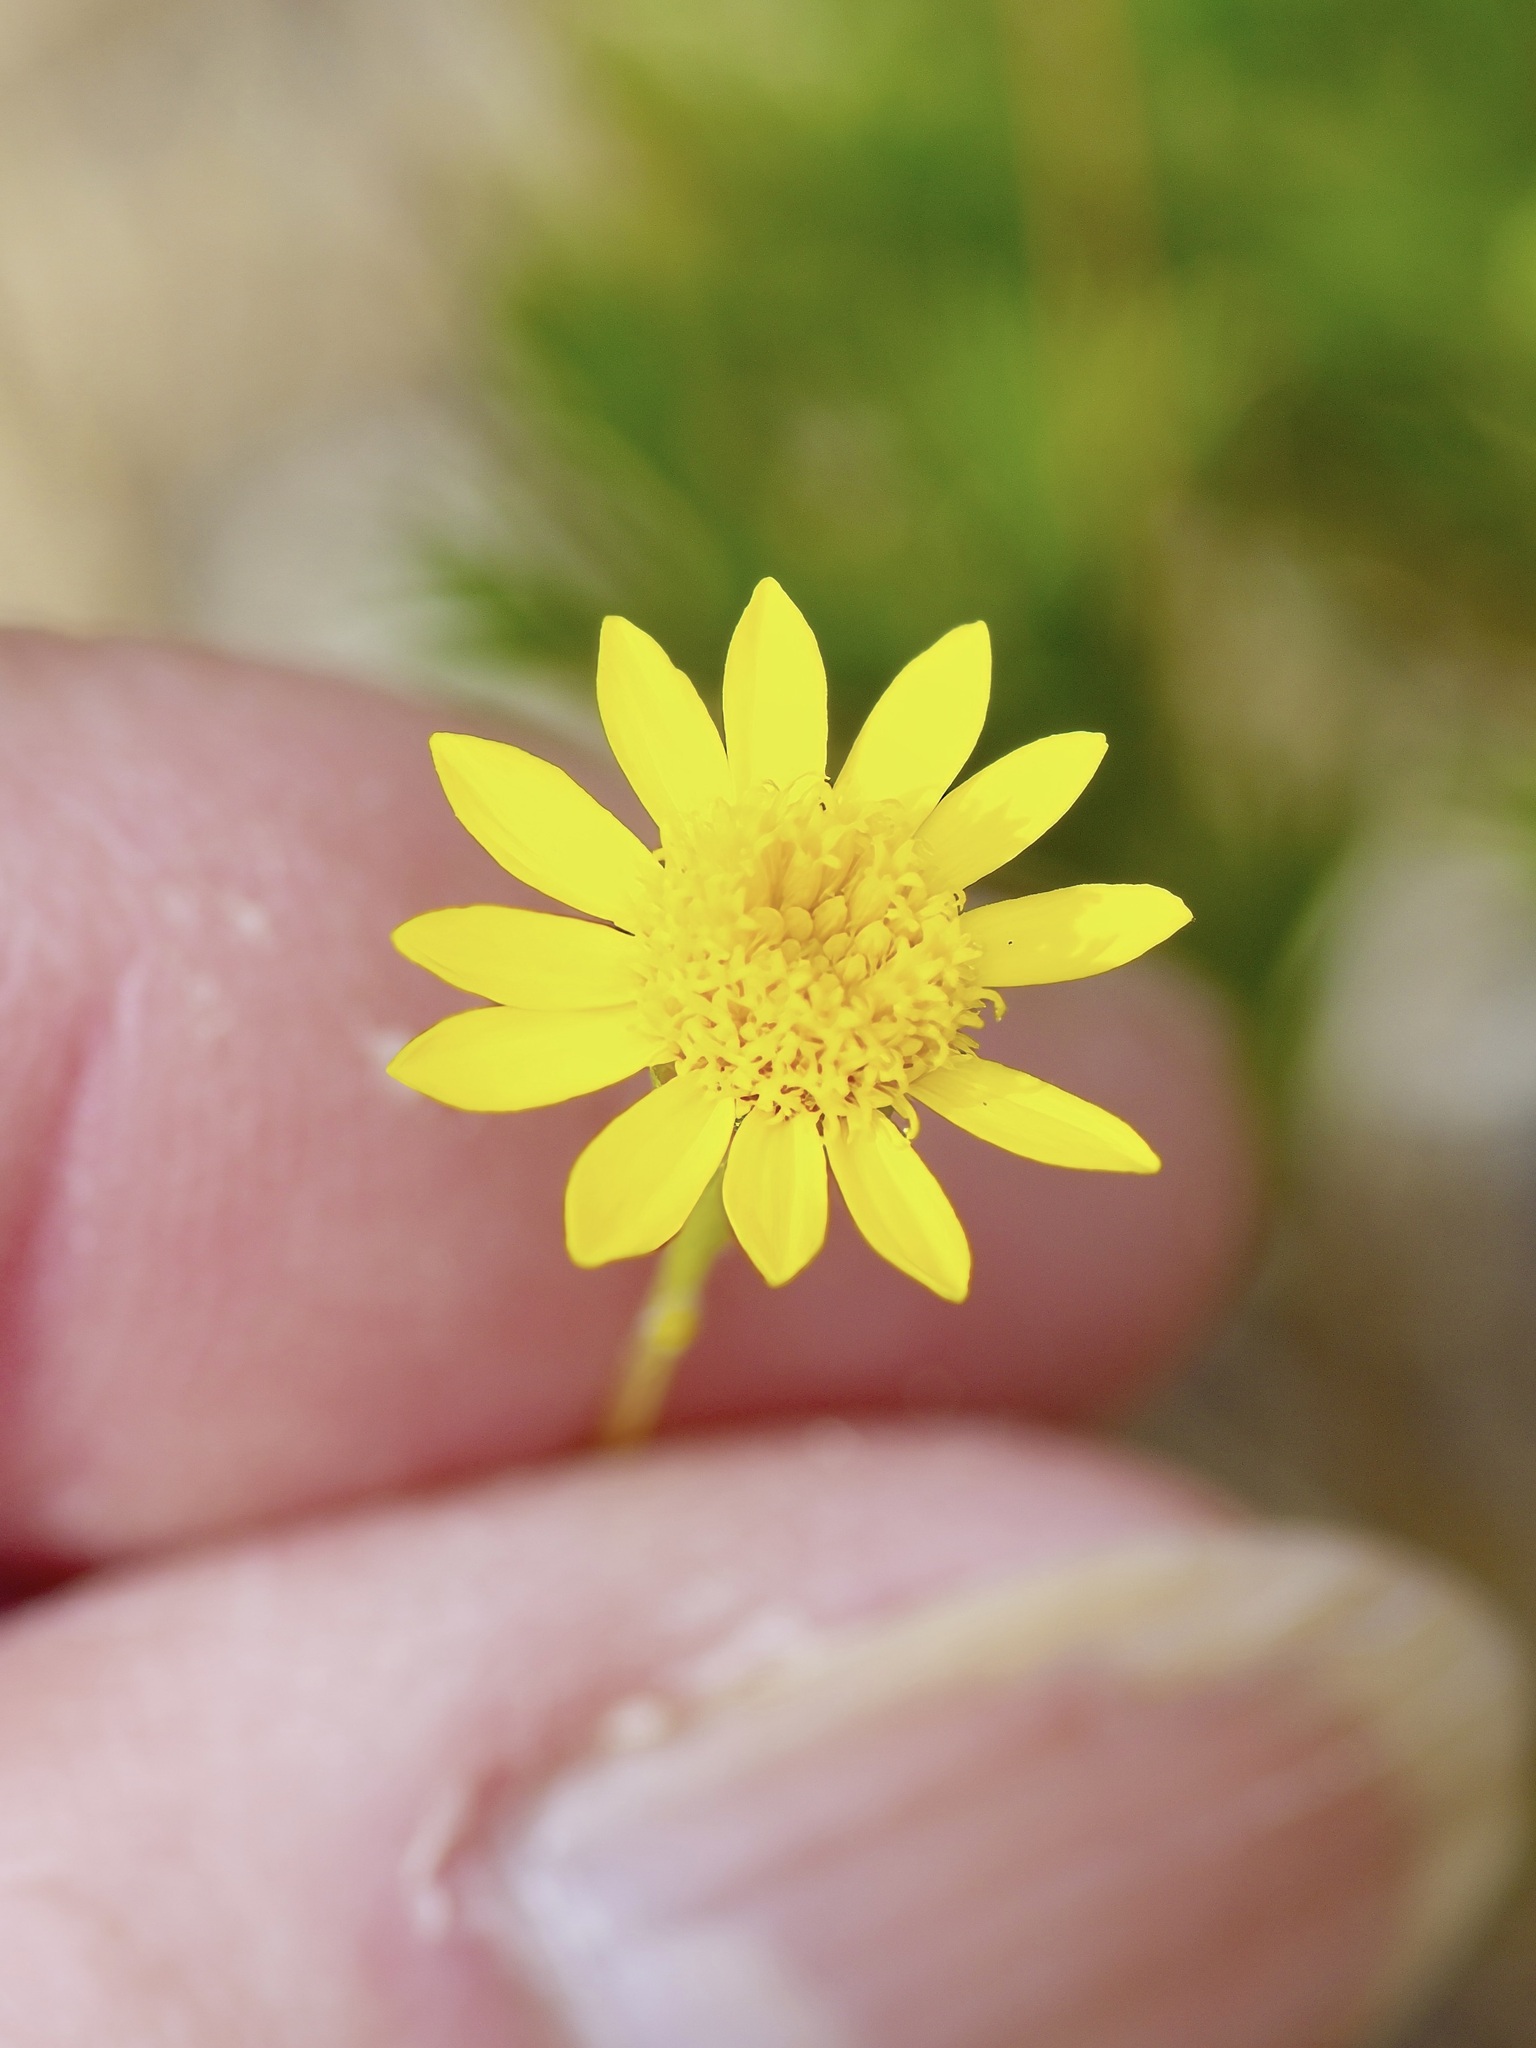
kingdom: Plantae
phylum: Tracheophyta
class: Magnoliopsida
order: Asterales
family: Asteraceae
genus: Thymophylla
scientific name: Thymophylla pentachaeta
